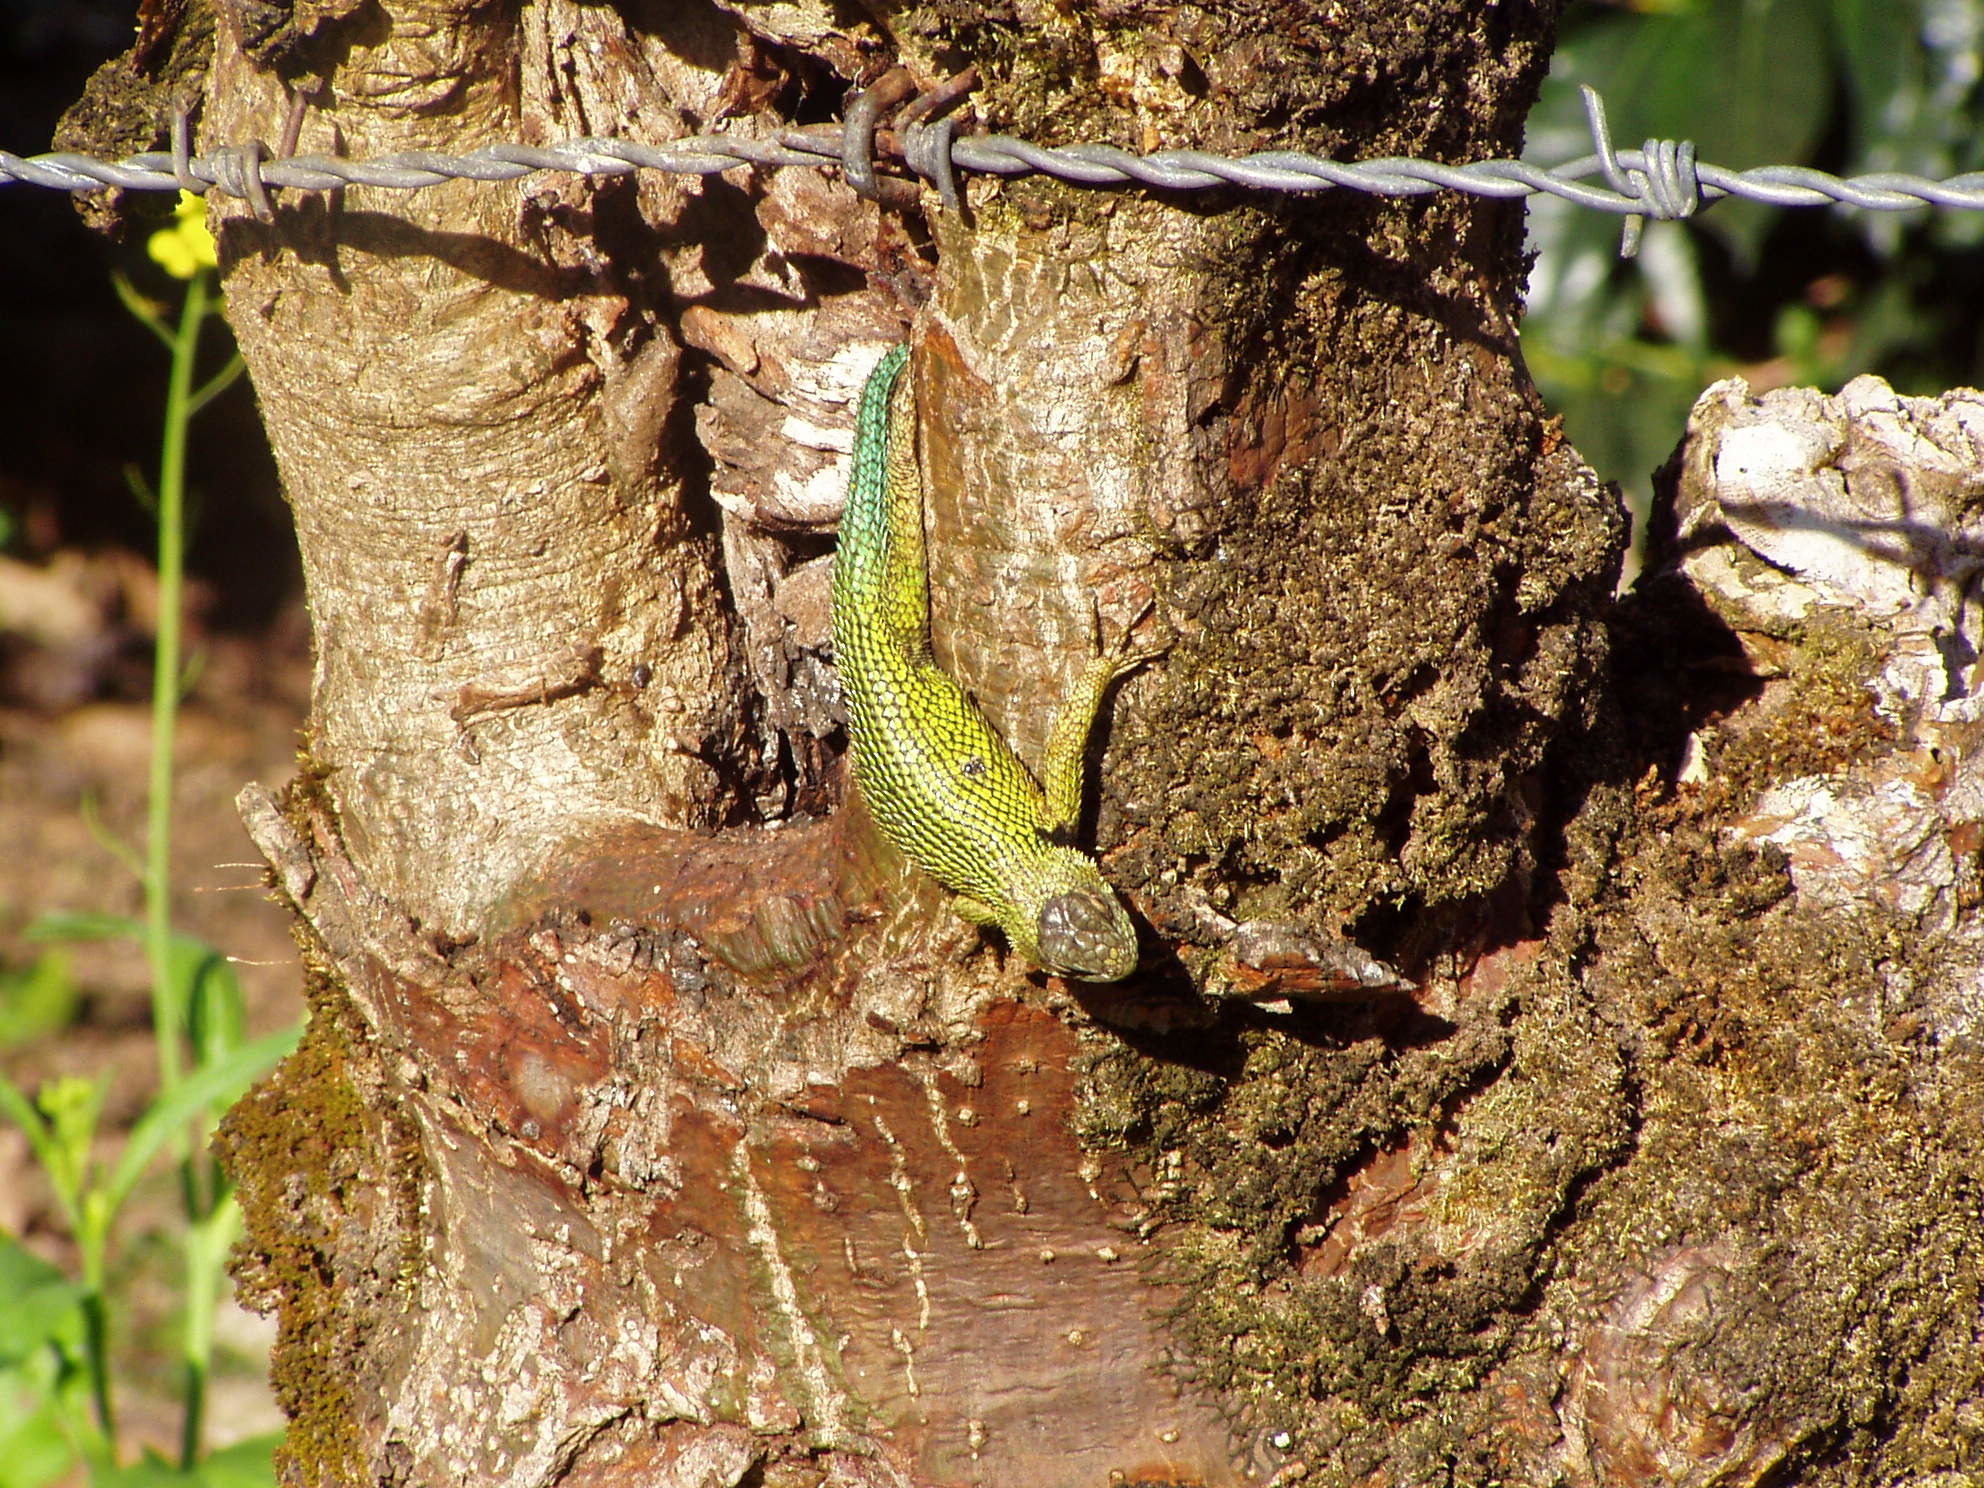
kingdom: Animalia
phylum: Chordata
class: Squamata
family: Phrynosomatidae
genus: Sceloporus
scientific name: Sceloporus malachiticus
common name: Green spiny lizard
